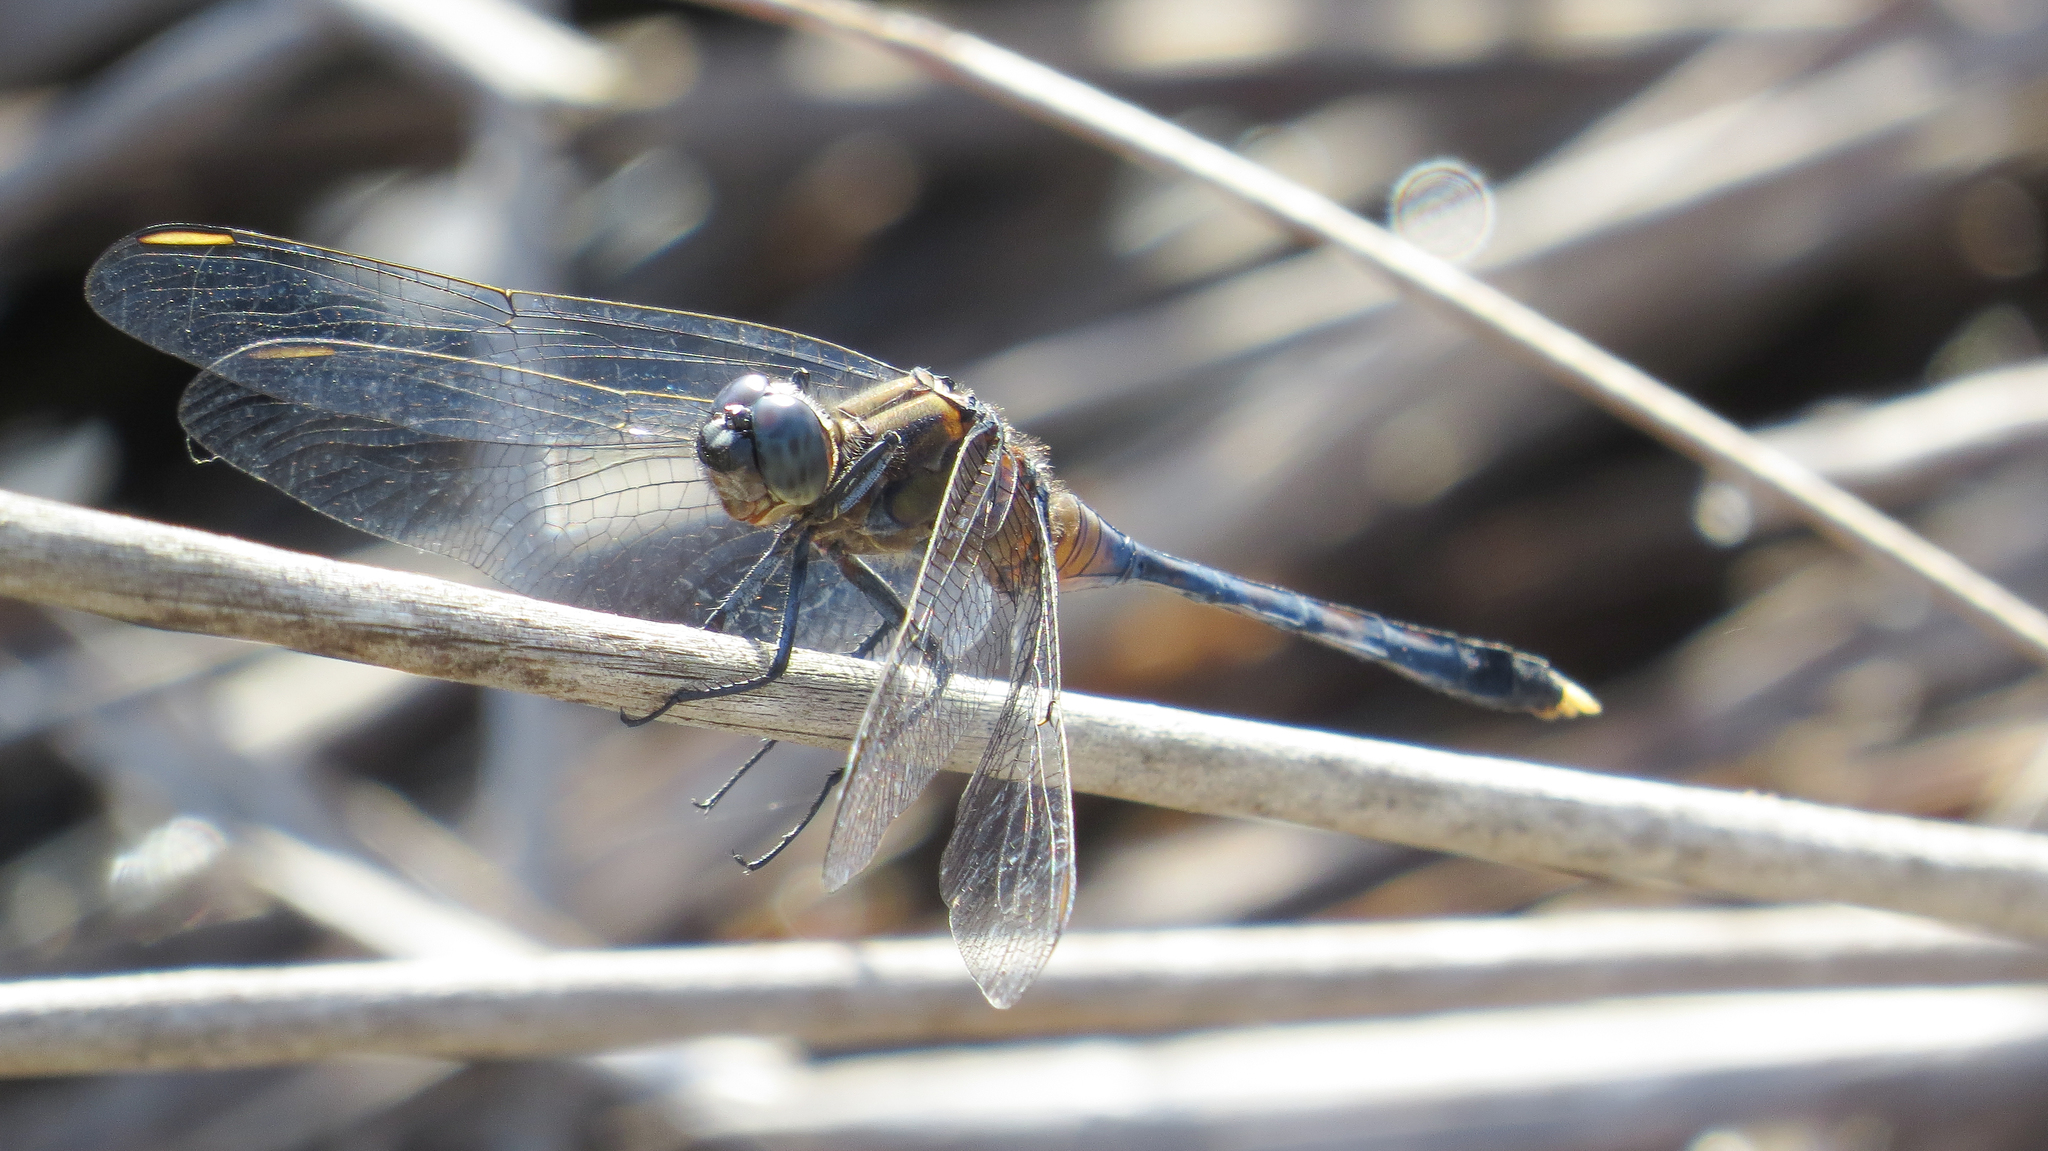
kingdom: Animalia
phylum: Arthropoda
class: Insecta
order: Odonata
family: Libellulidae
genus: Orthetrum
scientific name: Orthetrum boumiera
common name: Brownwater skimmer
